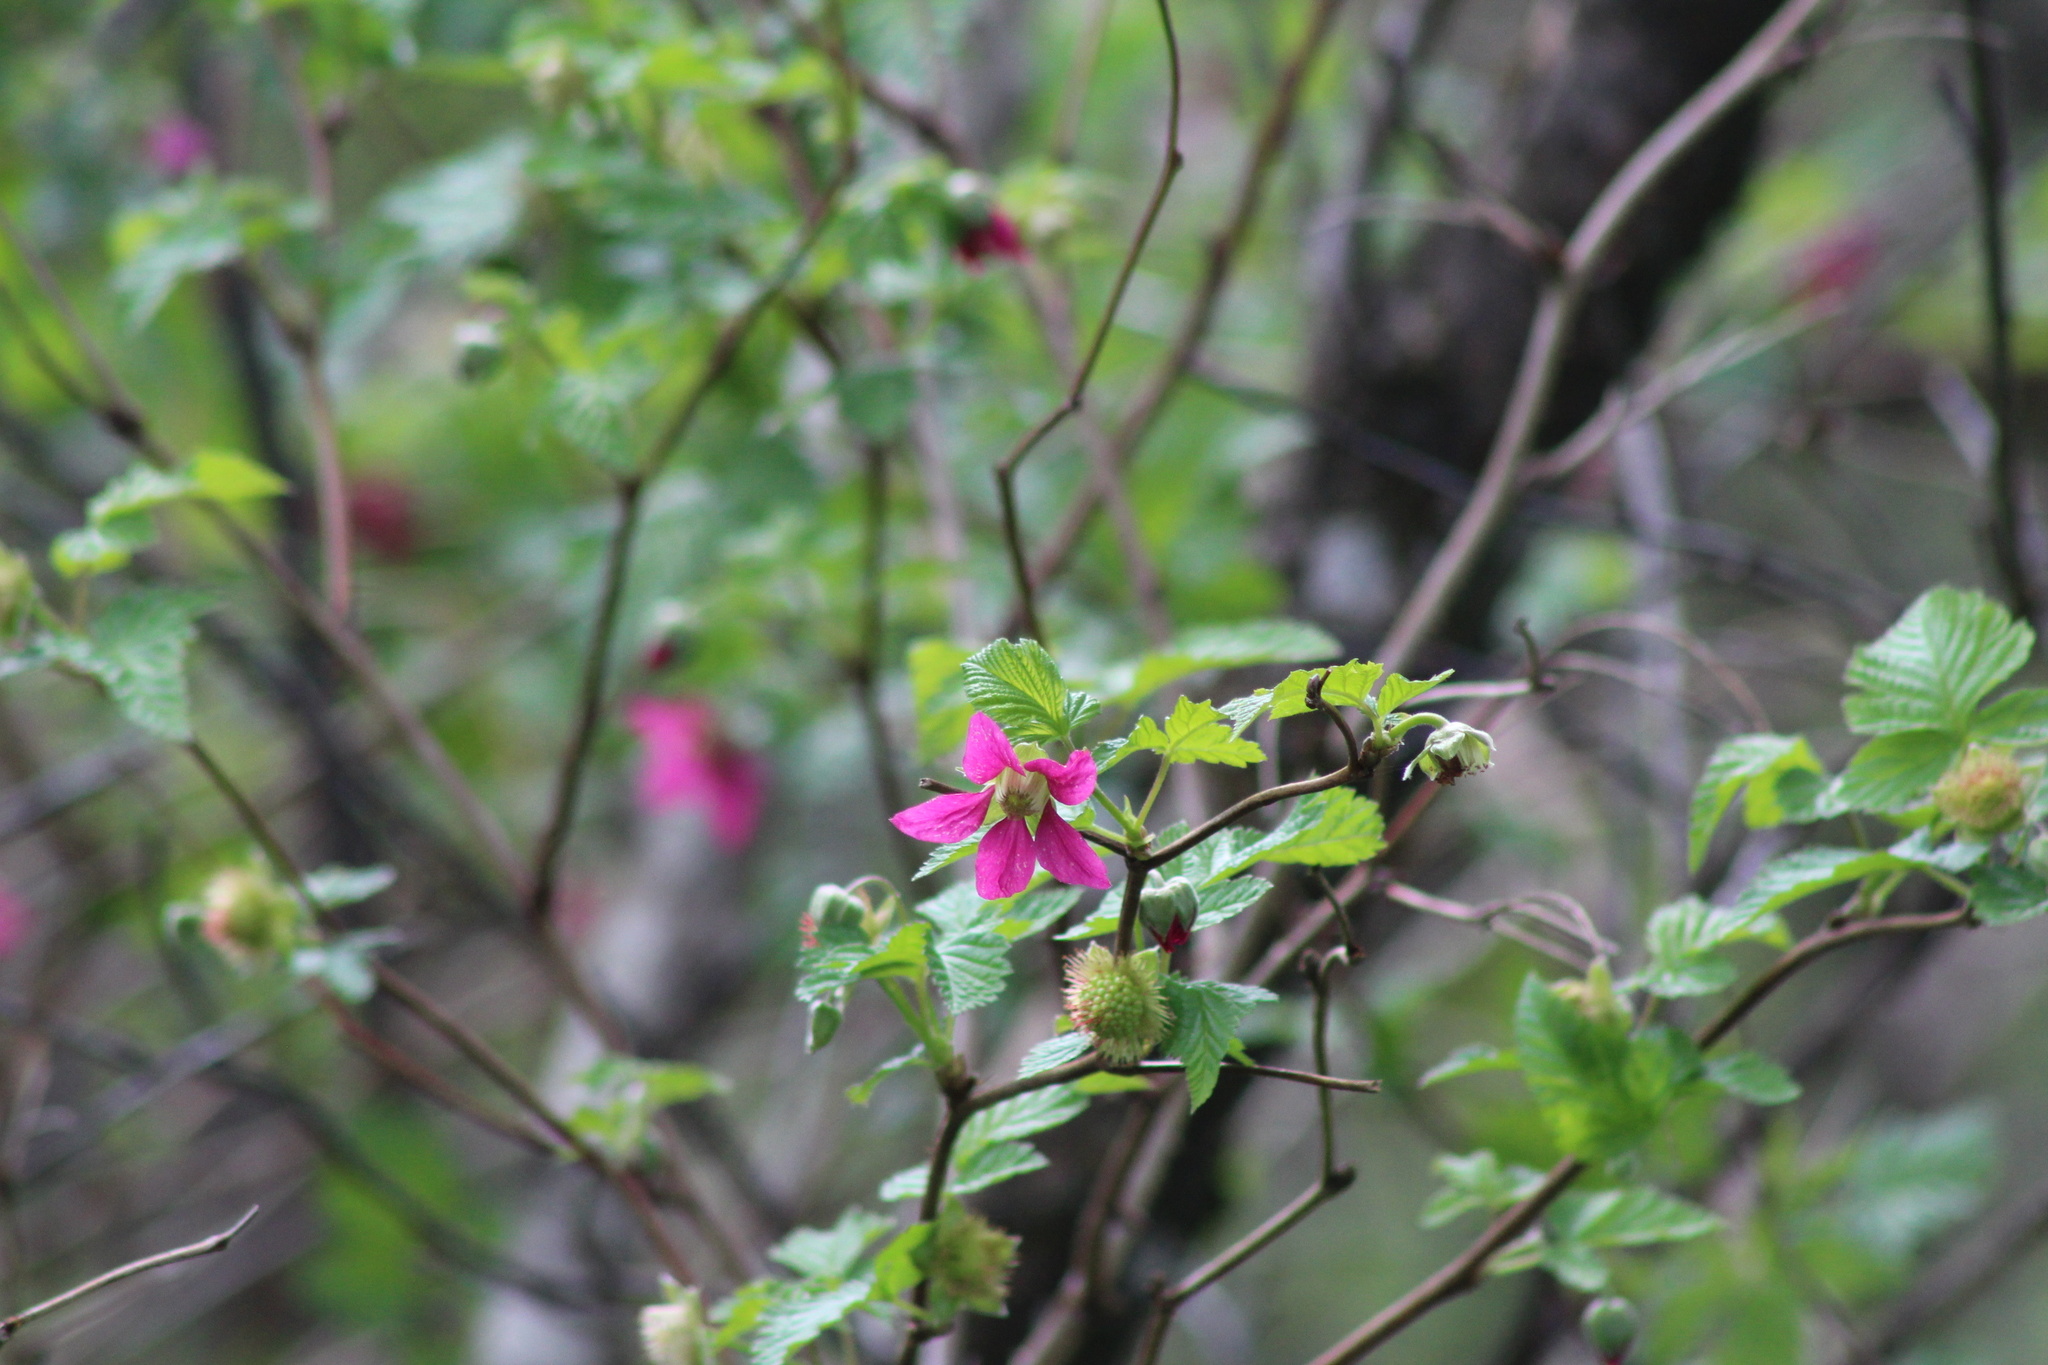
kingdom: Plantae
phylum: Tracheophyta
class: Magnoliopsida
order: Rosales
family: Rosaceae
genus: Rubus
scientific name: Rubus spectabilis
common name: Salmonberry
